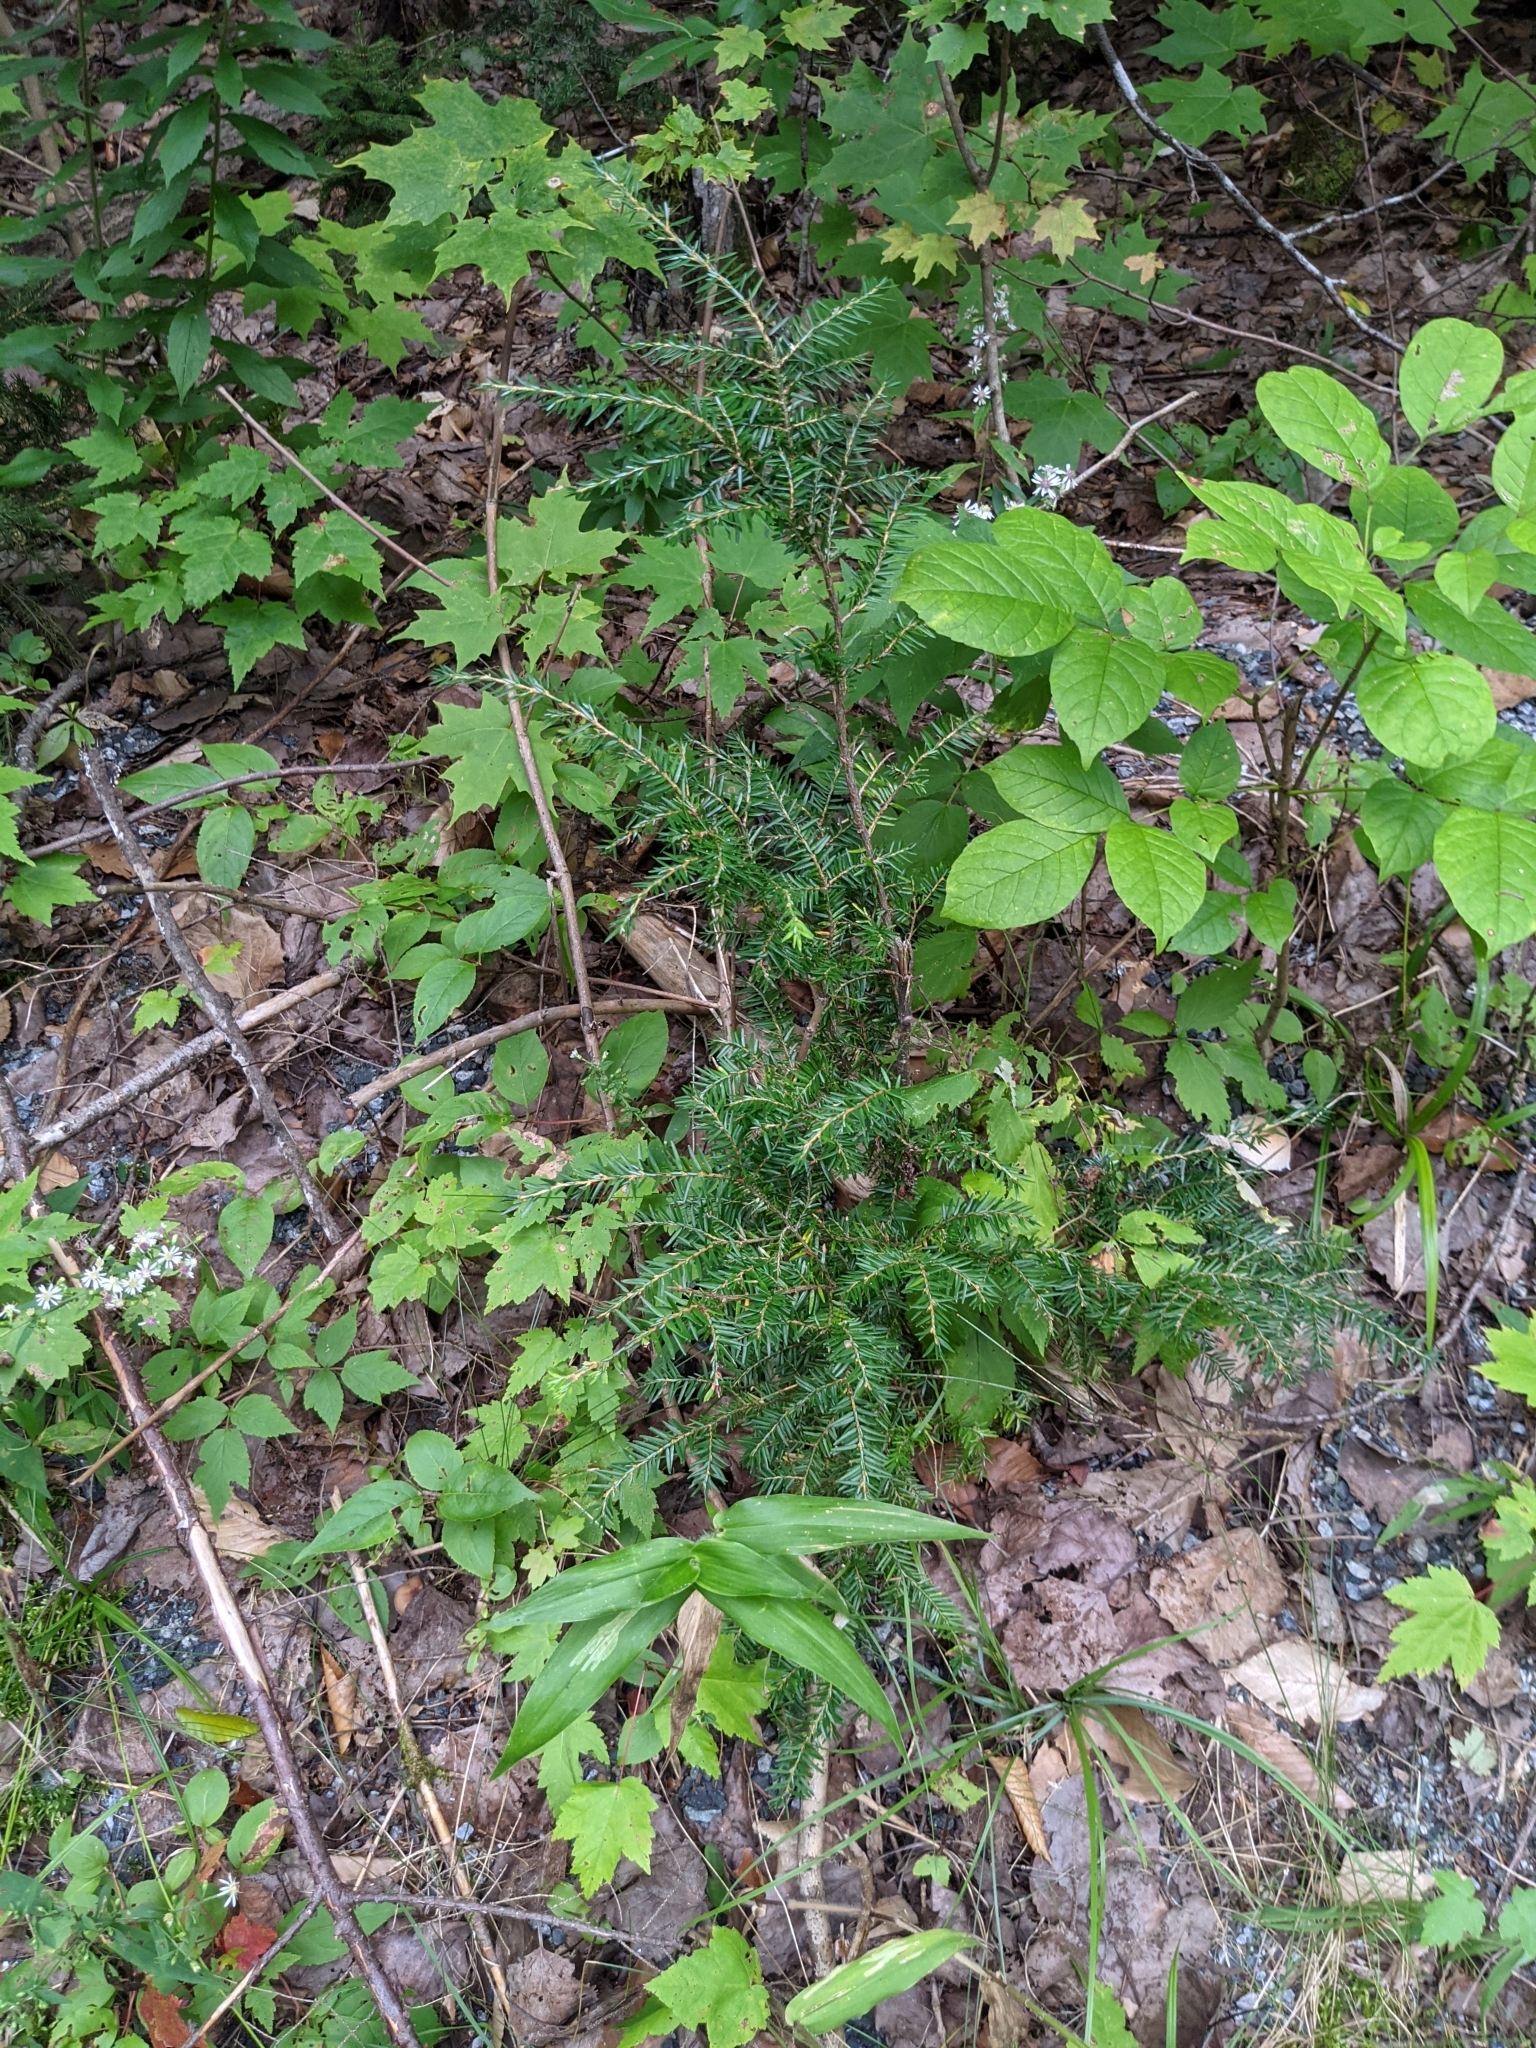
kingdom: Plantae
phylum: Tracheophyta
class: Pinopsida
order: Pinales
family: Pinaceae
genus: Tsuga
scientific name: Tsuga canadensis
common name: Eastern hemlock
